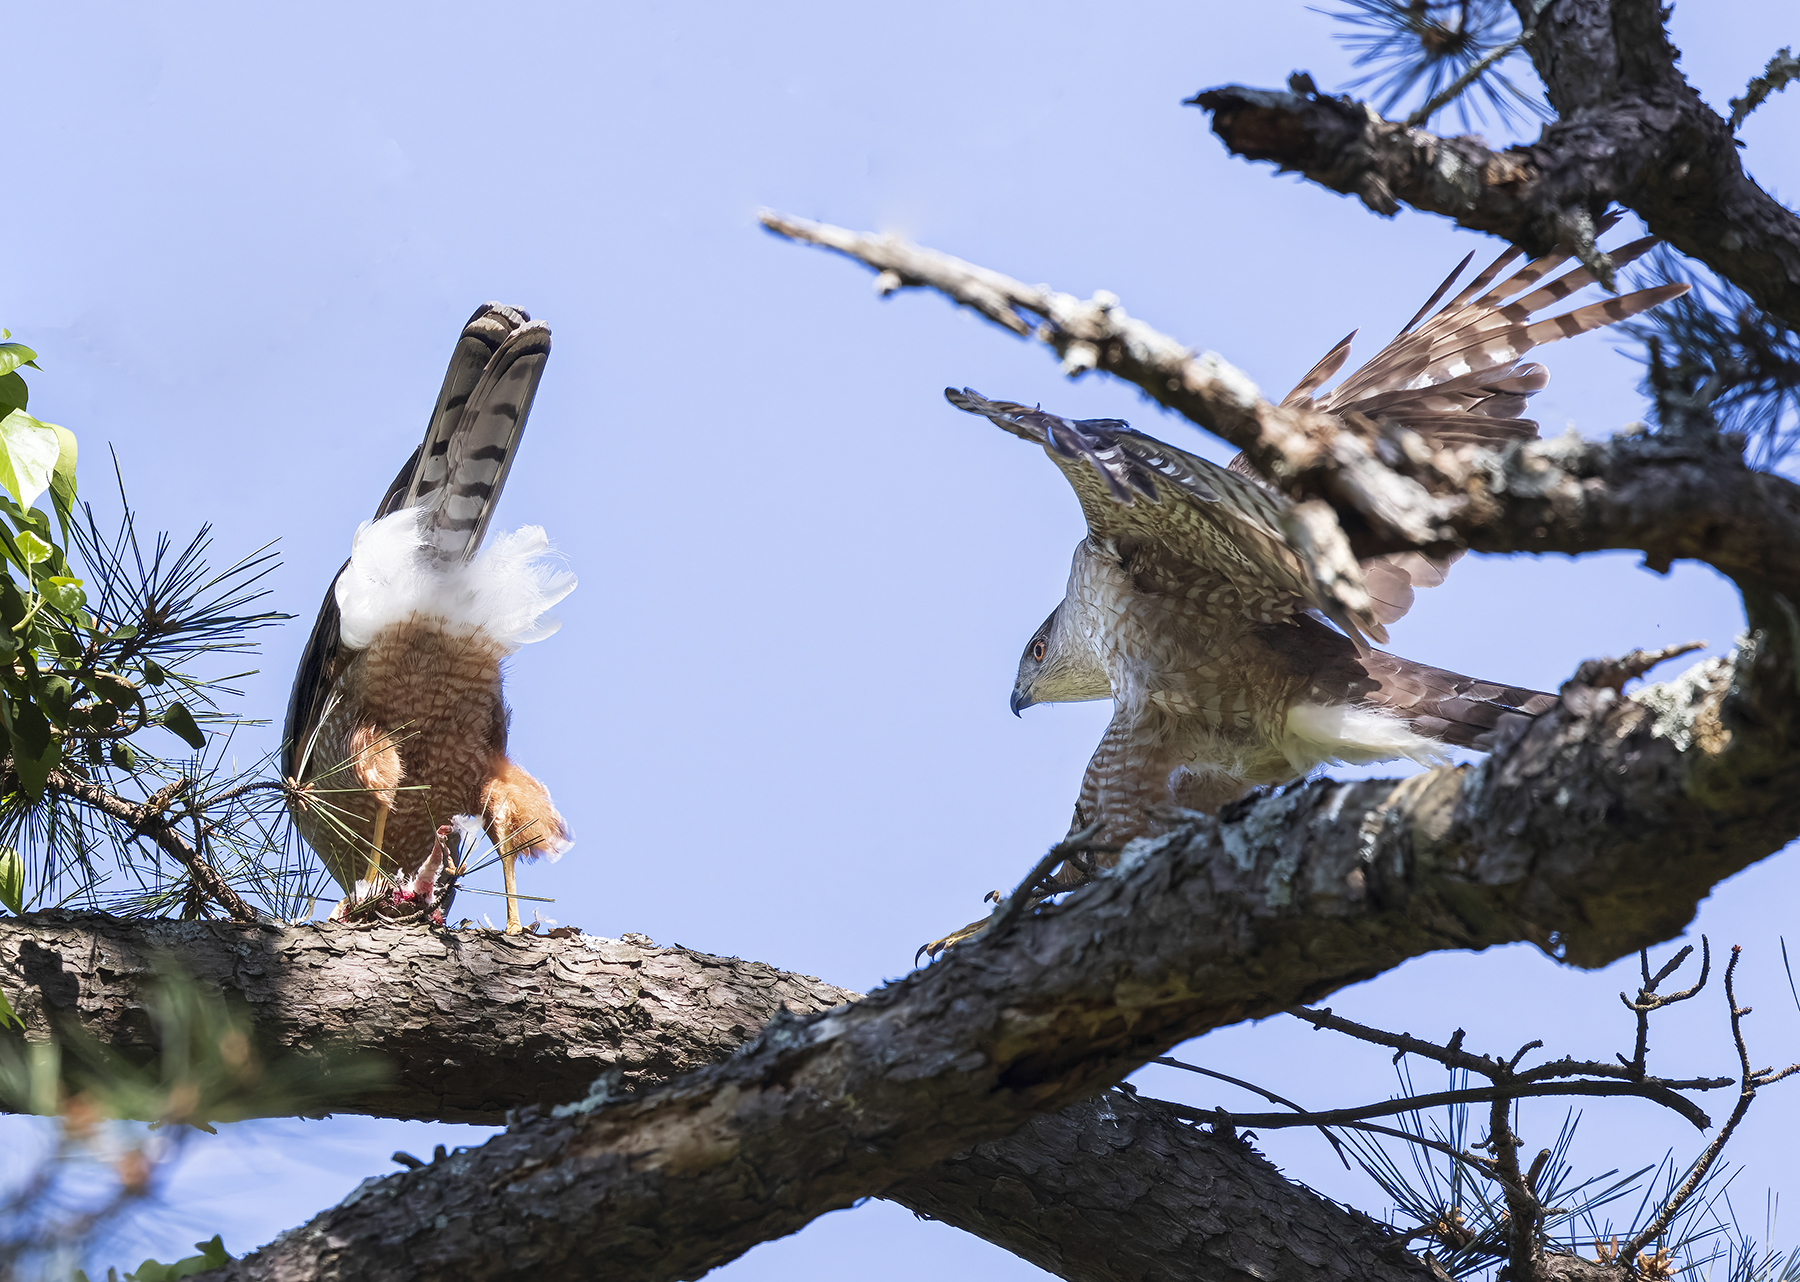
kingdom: Animalia
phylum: Chordata
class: Aves
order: Accipitriformes
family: Accipitridae
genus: Accipiter
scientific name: Accipiter cooperii
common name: Cooper's hawk
